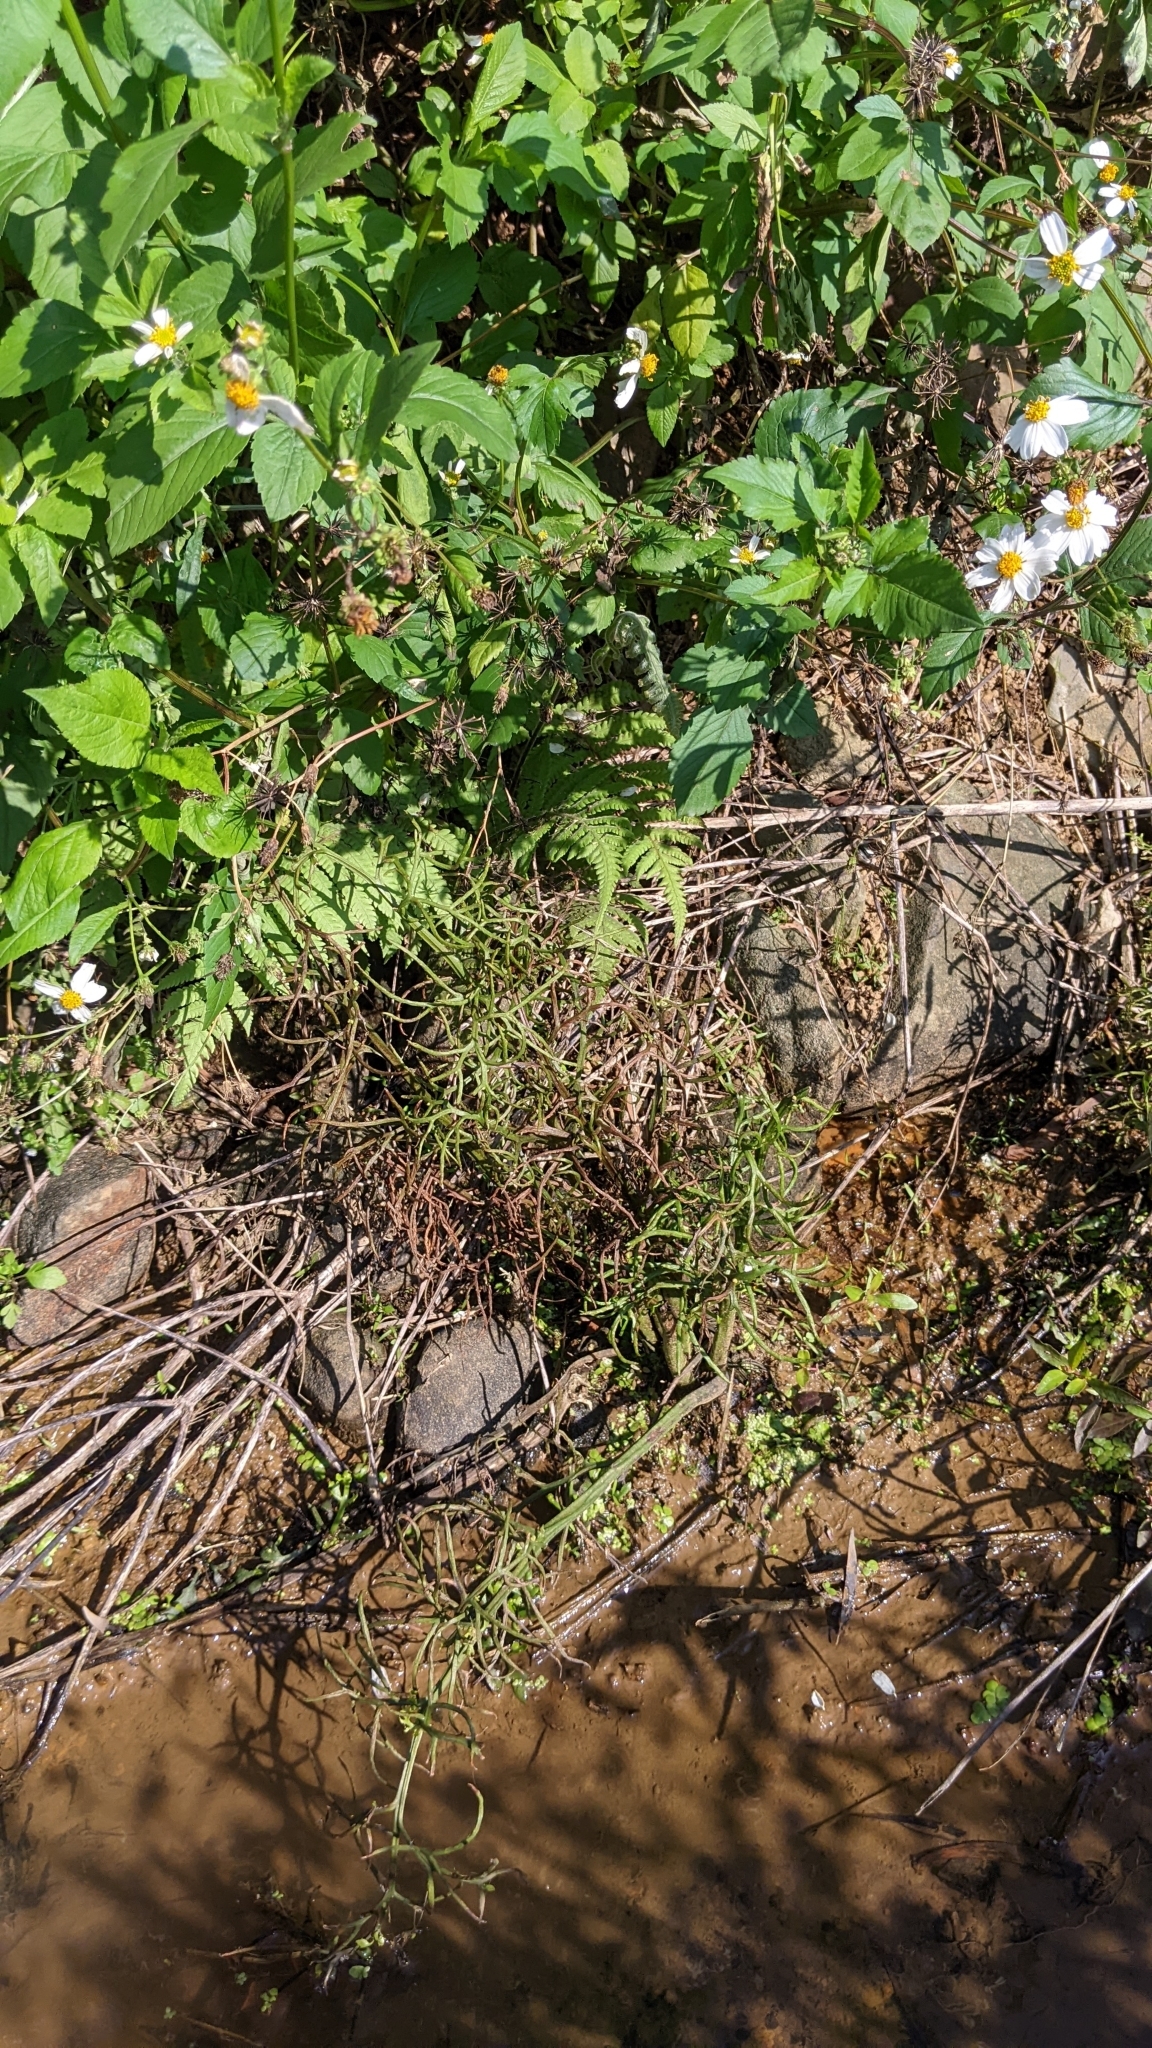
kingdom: Plantae
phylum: Tracheophyta
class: Polypodiopsida
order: Polypodiales
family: Pteridaceae
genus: Ceratopteris
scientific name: Ceratopteris thalictroides
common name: Water fern
